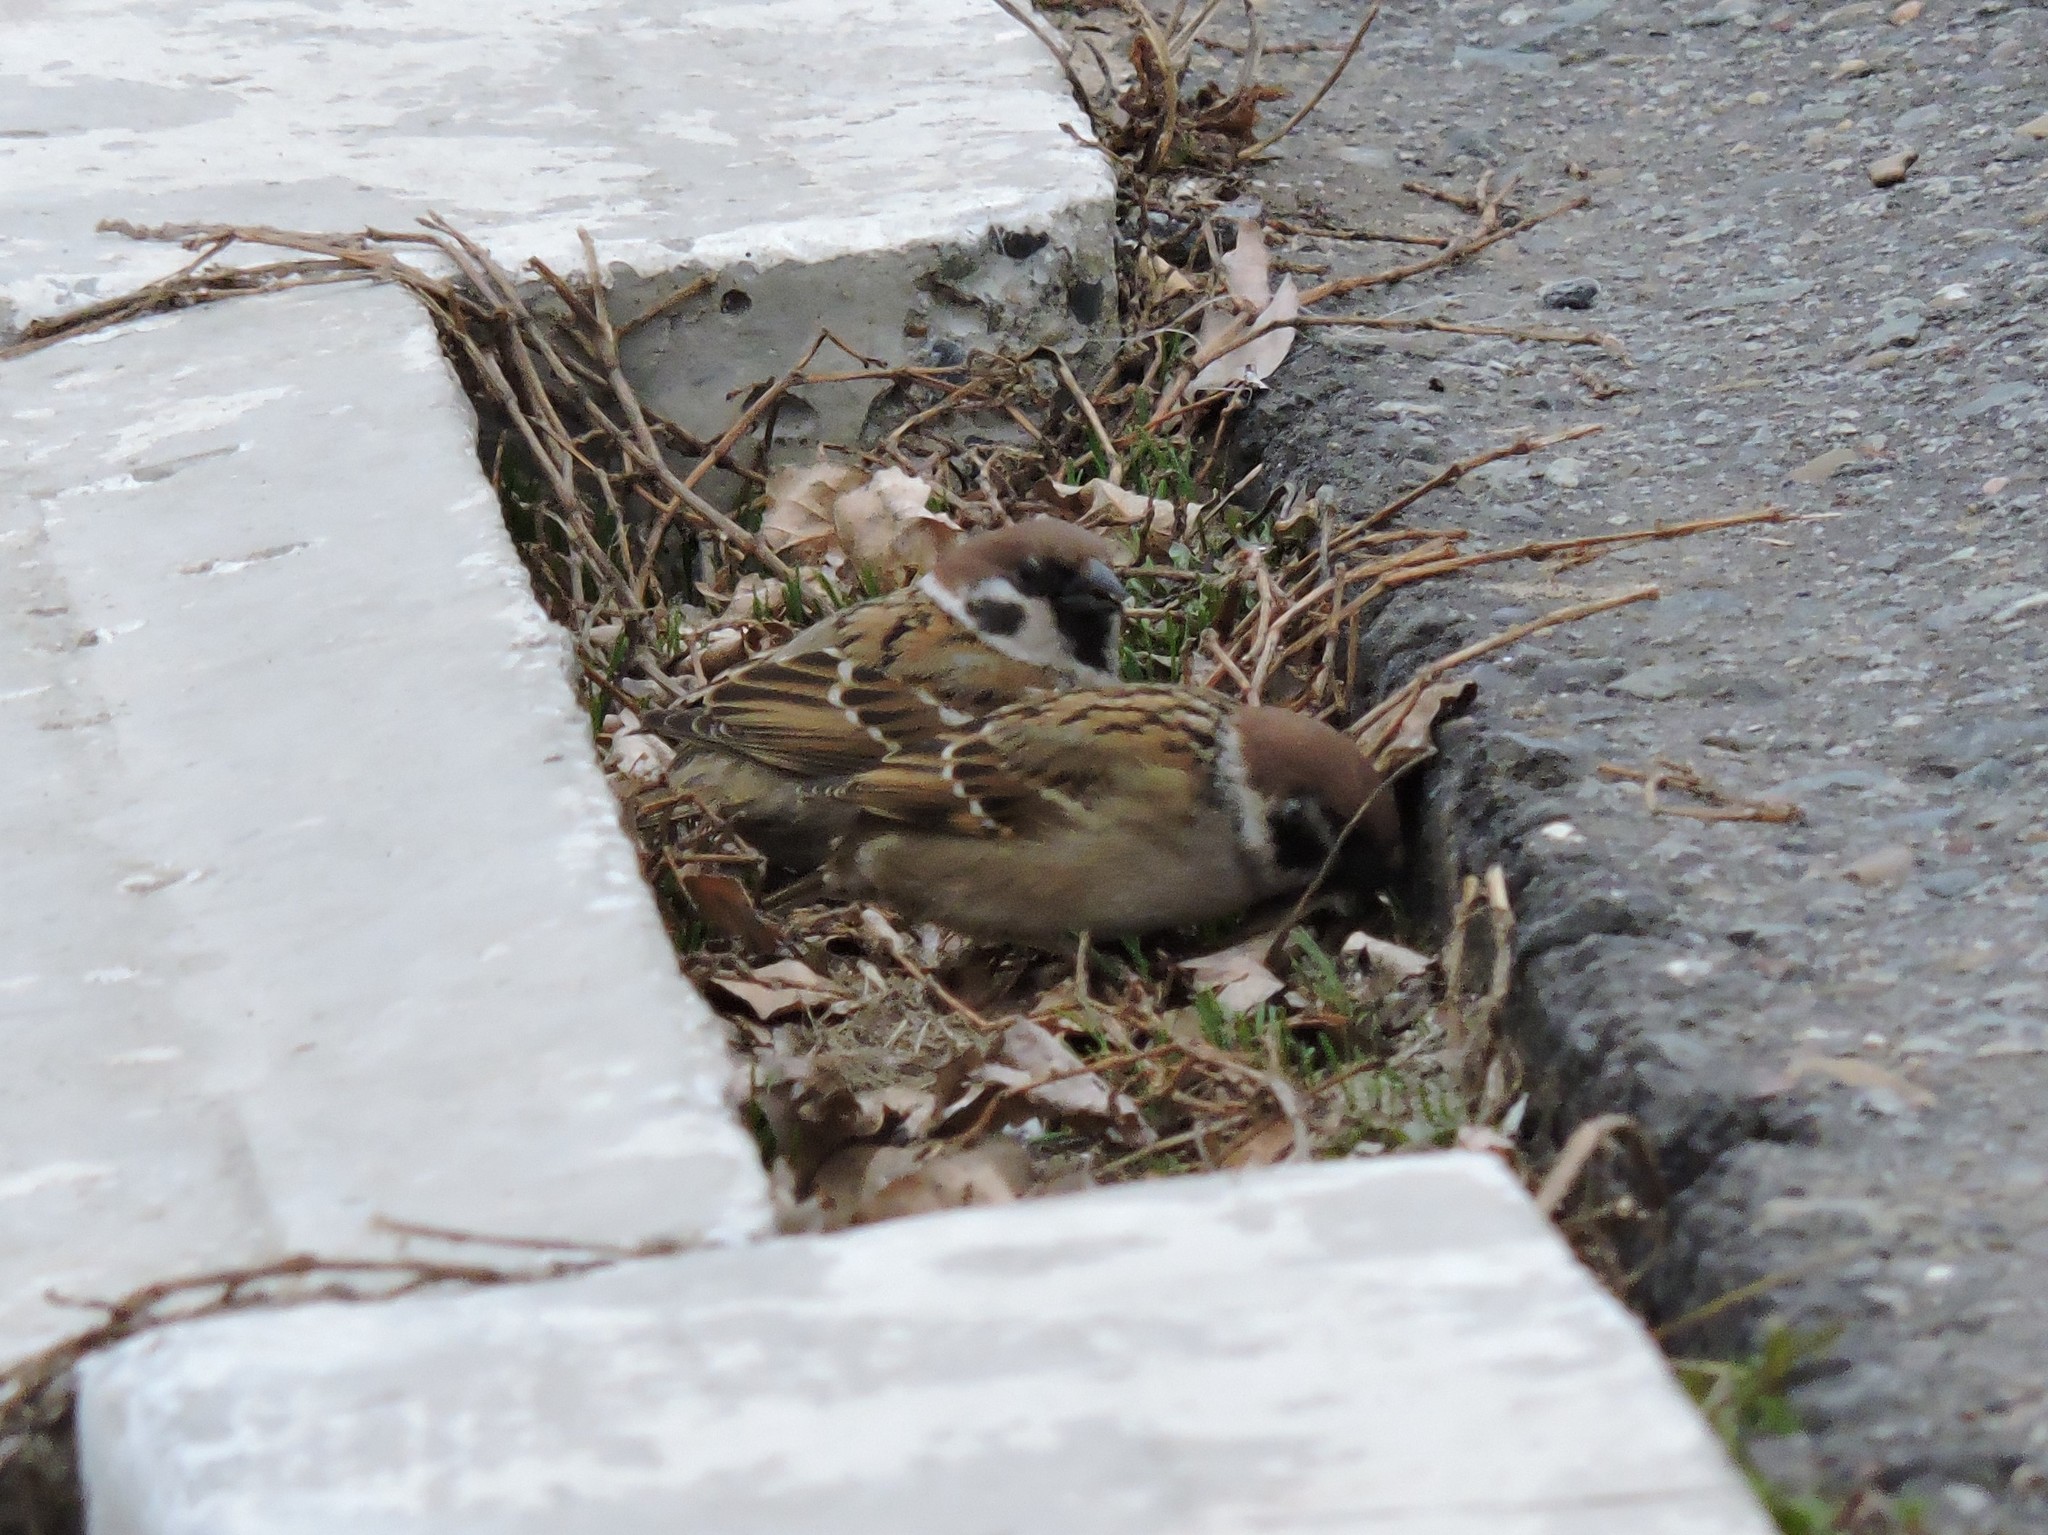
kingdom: Animalia
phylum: Chordata
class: Aves
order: Passeriformes
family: Passeridae
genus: Passer
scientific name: Passer montanus
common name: Eurasian tree sparrow
